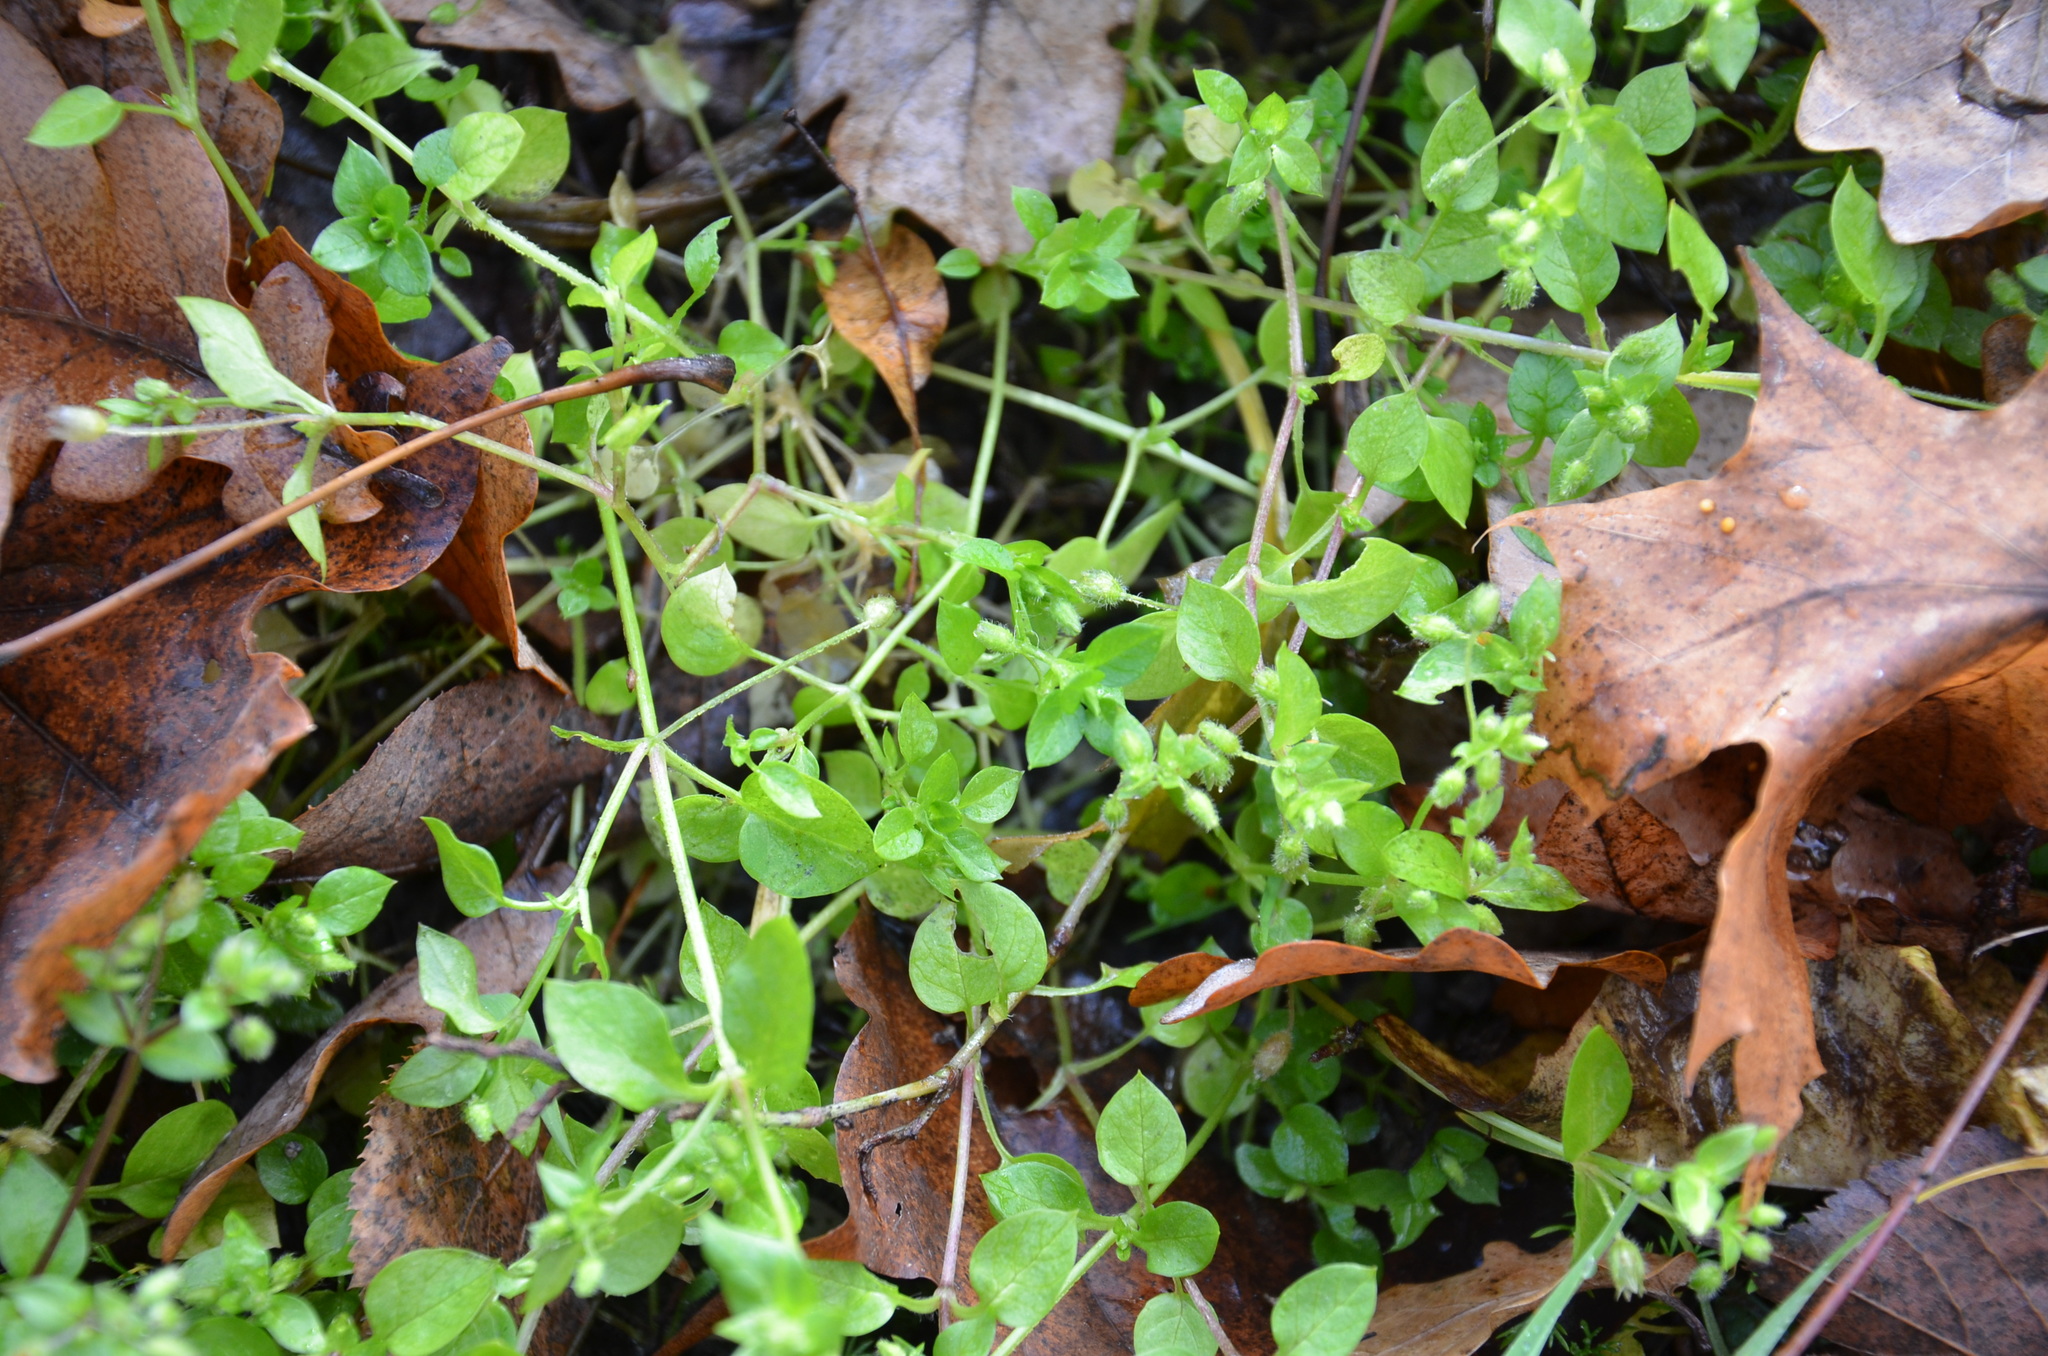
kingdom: Plantae
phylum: Tracheophyta
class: Magnoliopsida
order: Caryophyllales
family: Caryophyllaceae
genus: Stellaria
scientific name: Stellaria media
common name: Common chickweed
